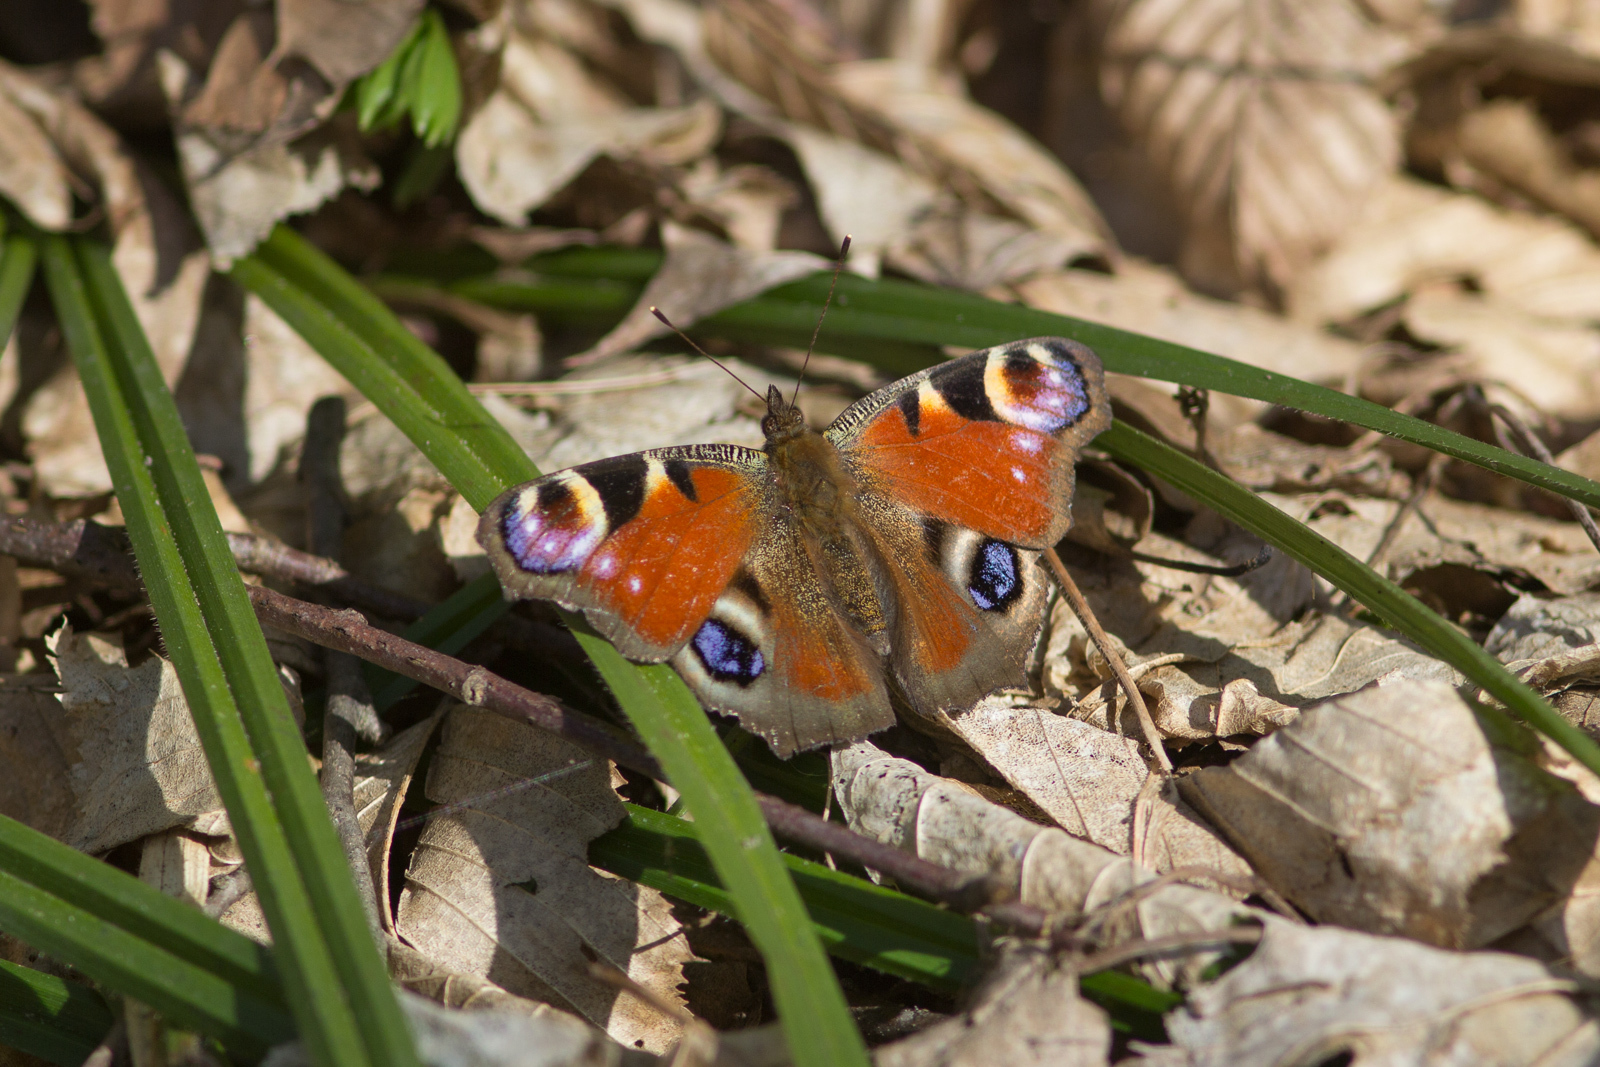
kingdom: Animalia
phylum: Arthropoda
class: Insecta
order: Lepidoptera
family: Nymphalidae
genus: Aglais
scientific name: Aglais io
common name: Peacock
